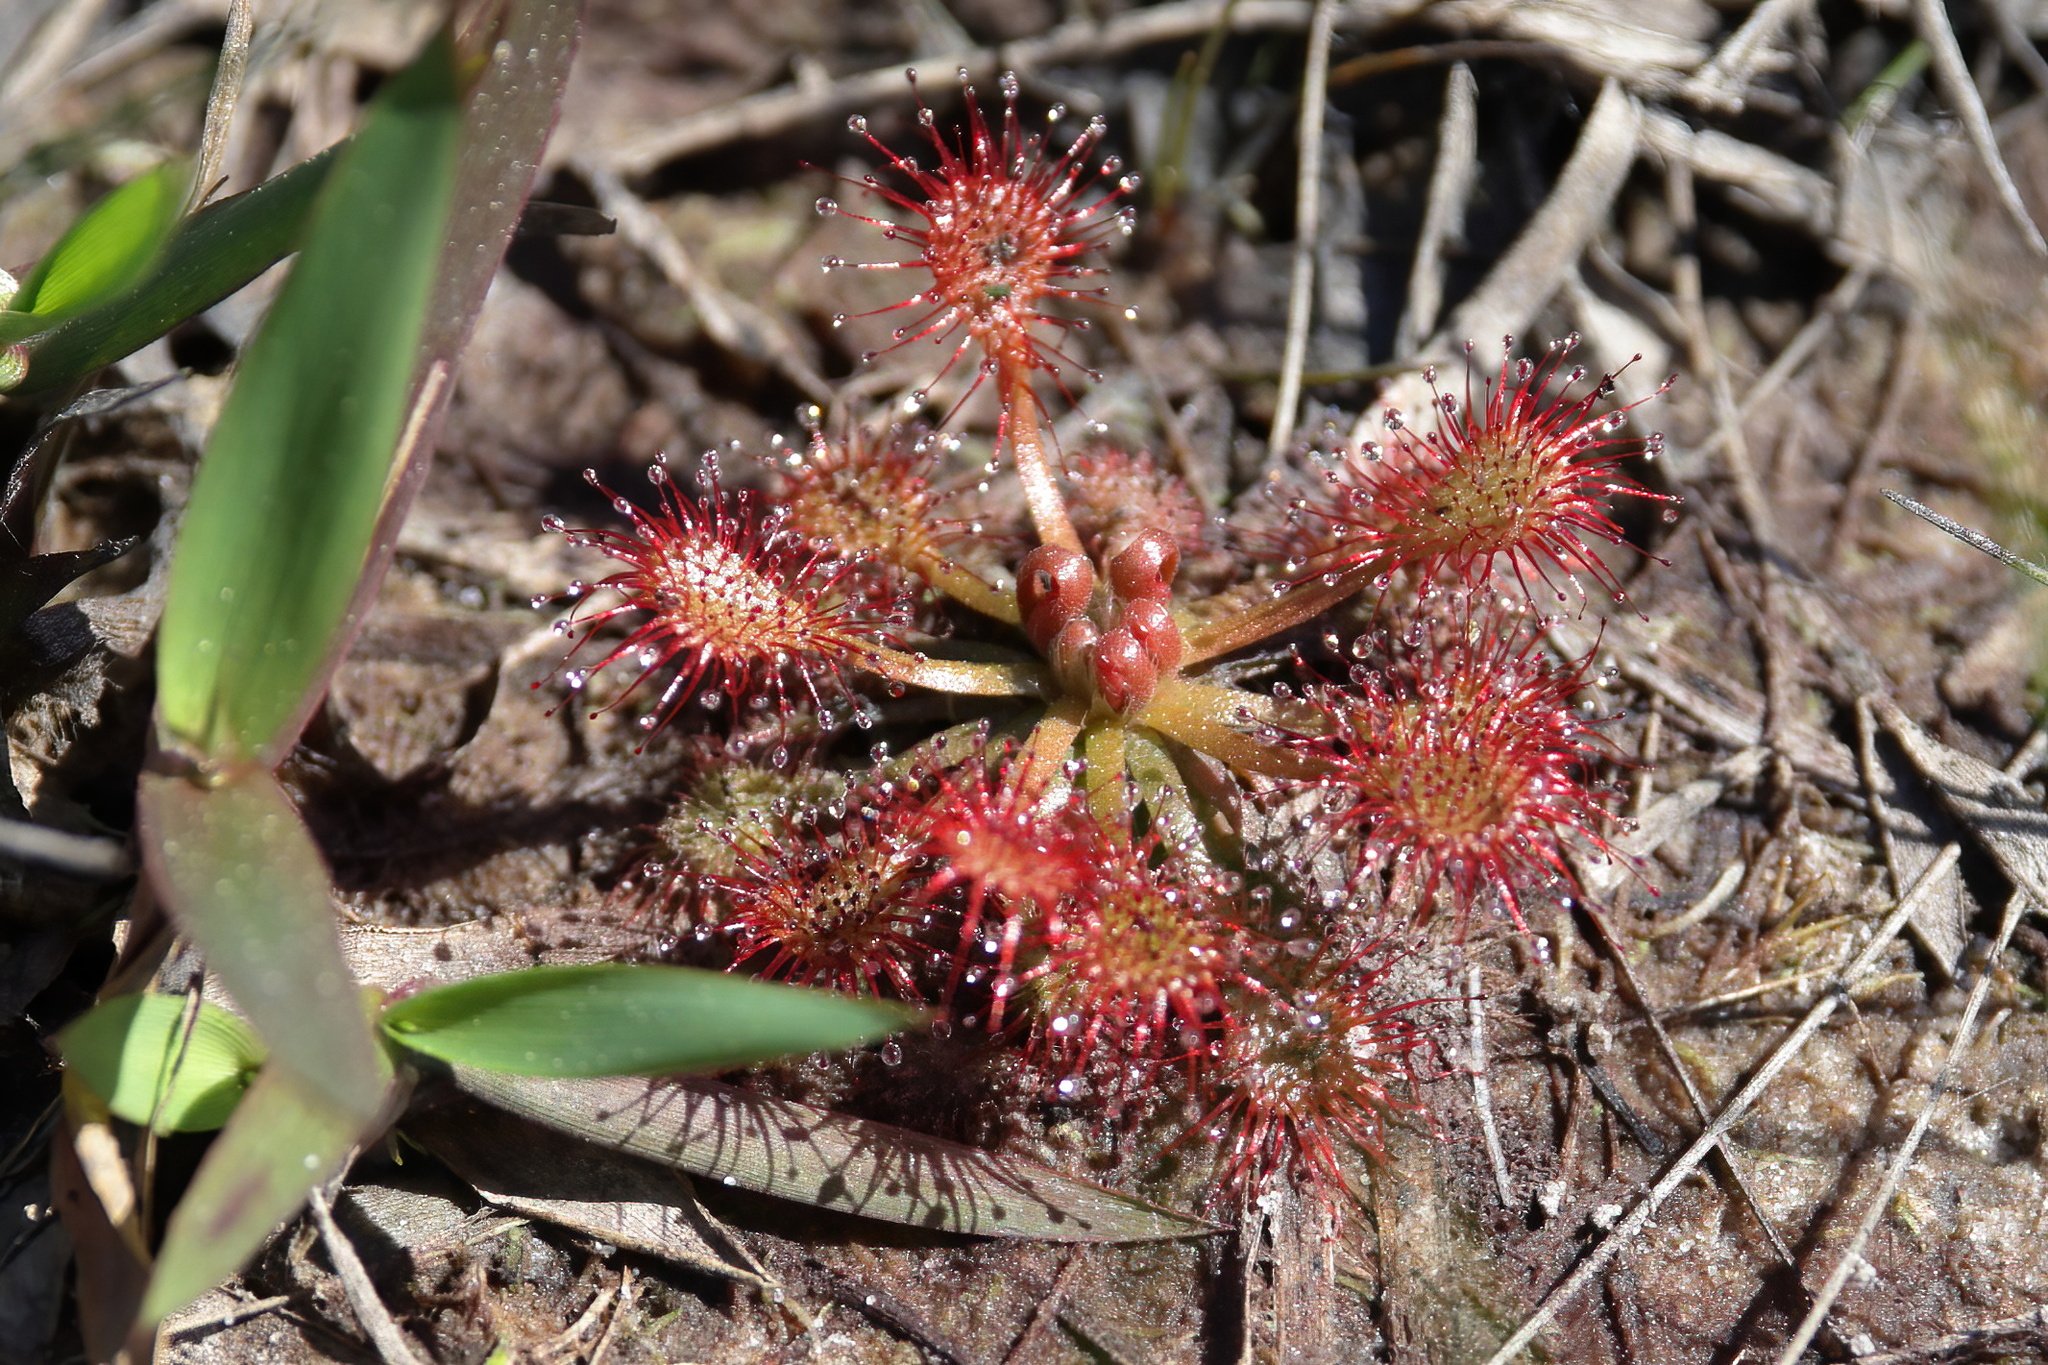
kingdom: Plantae
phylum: Tracheophyta
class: Magnoliopsida
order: Caryophyllales
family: Droseraceae
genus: Drosera
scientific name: Drosera capillaris
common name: Pink sundew
